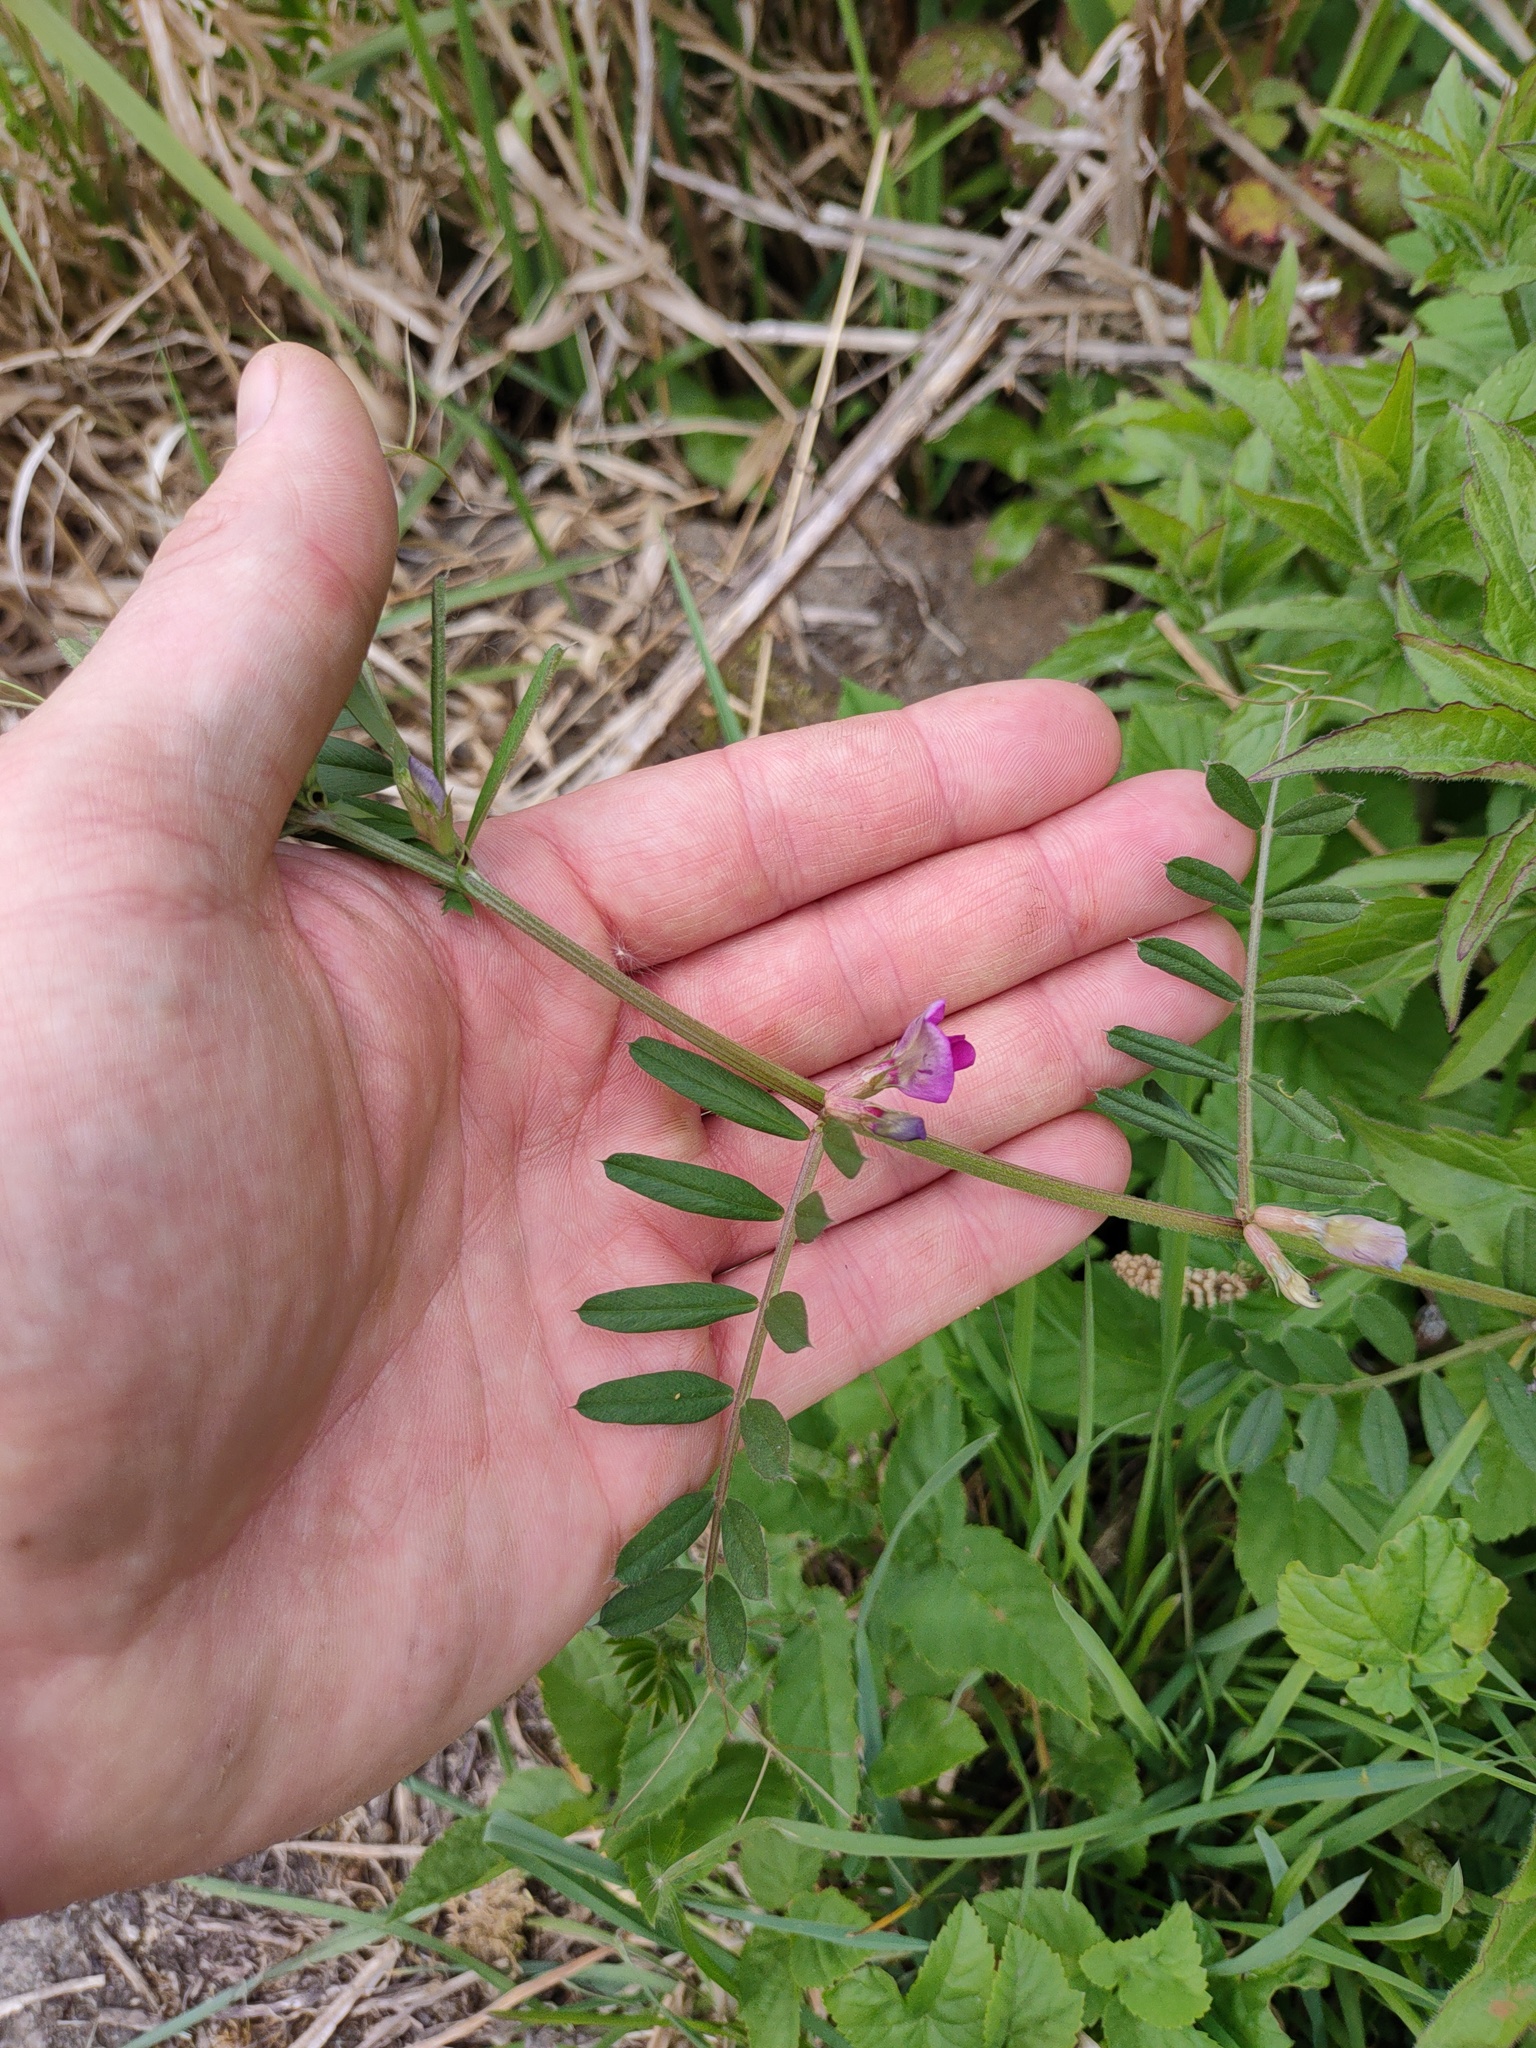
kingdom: Plantae
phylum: Tracheophyta
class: Magnoliopsida
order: Fabales
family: Fabaceae
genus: Vicia
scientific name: Vicia sativa
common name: Garden vetch
